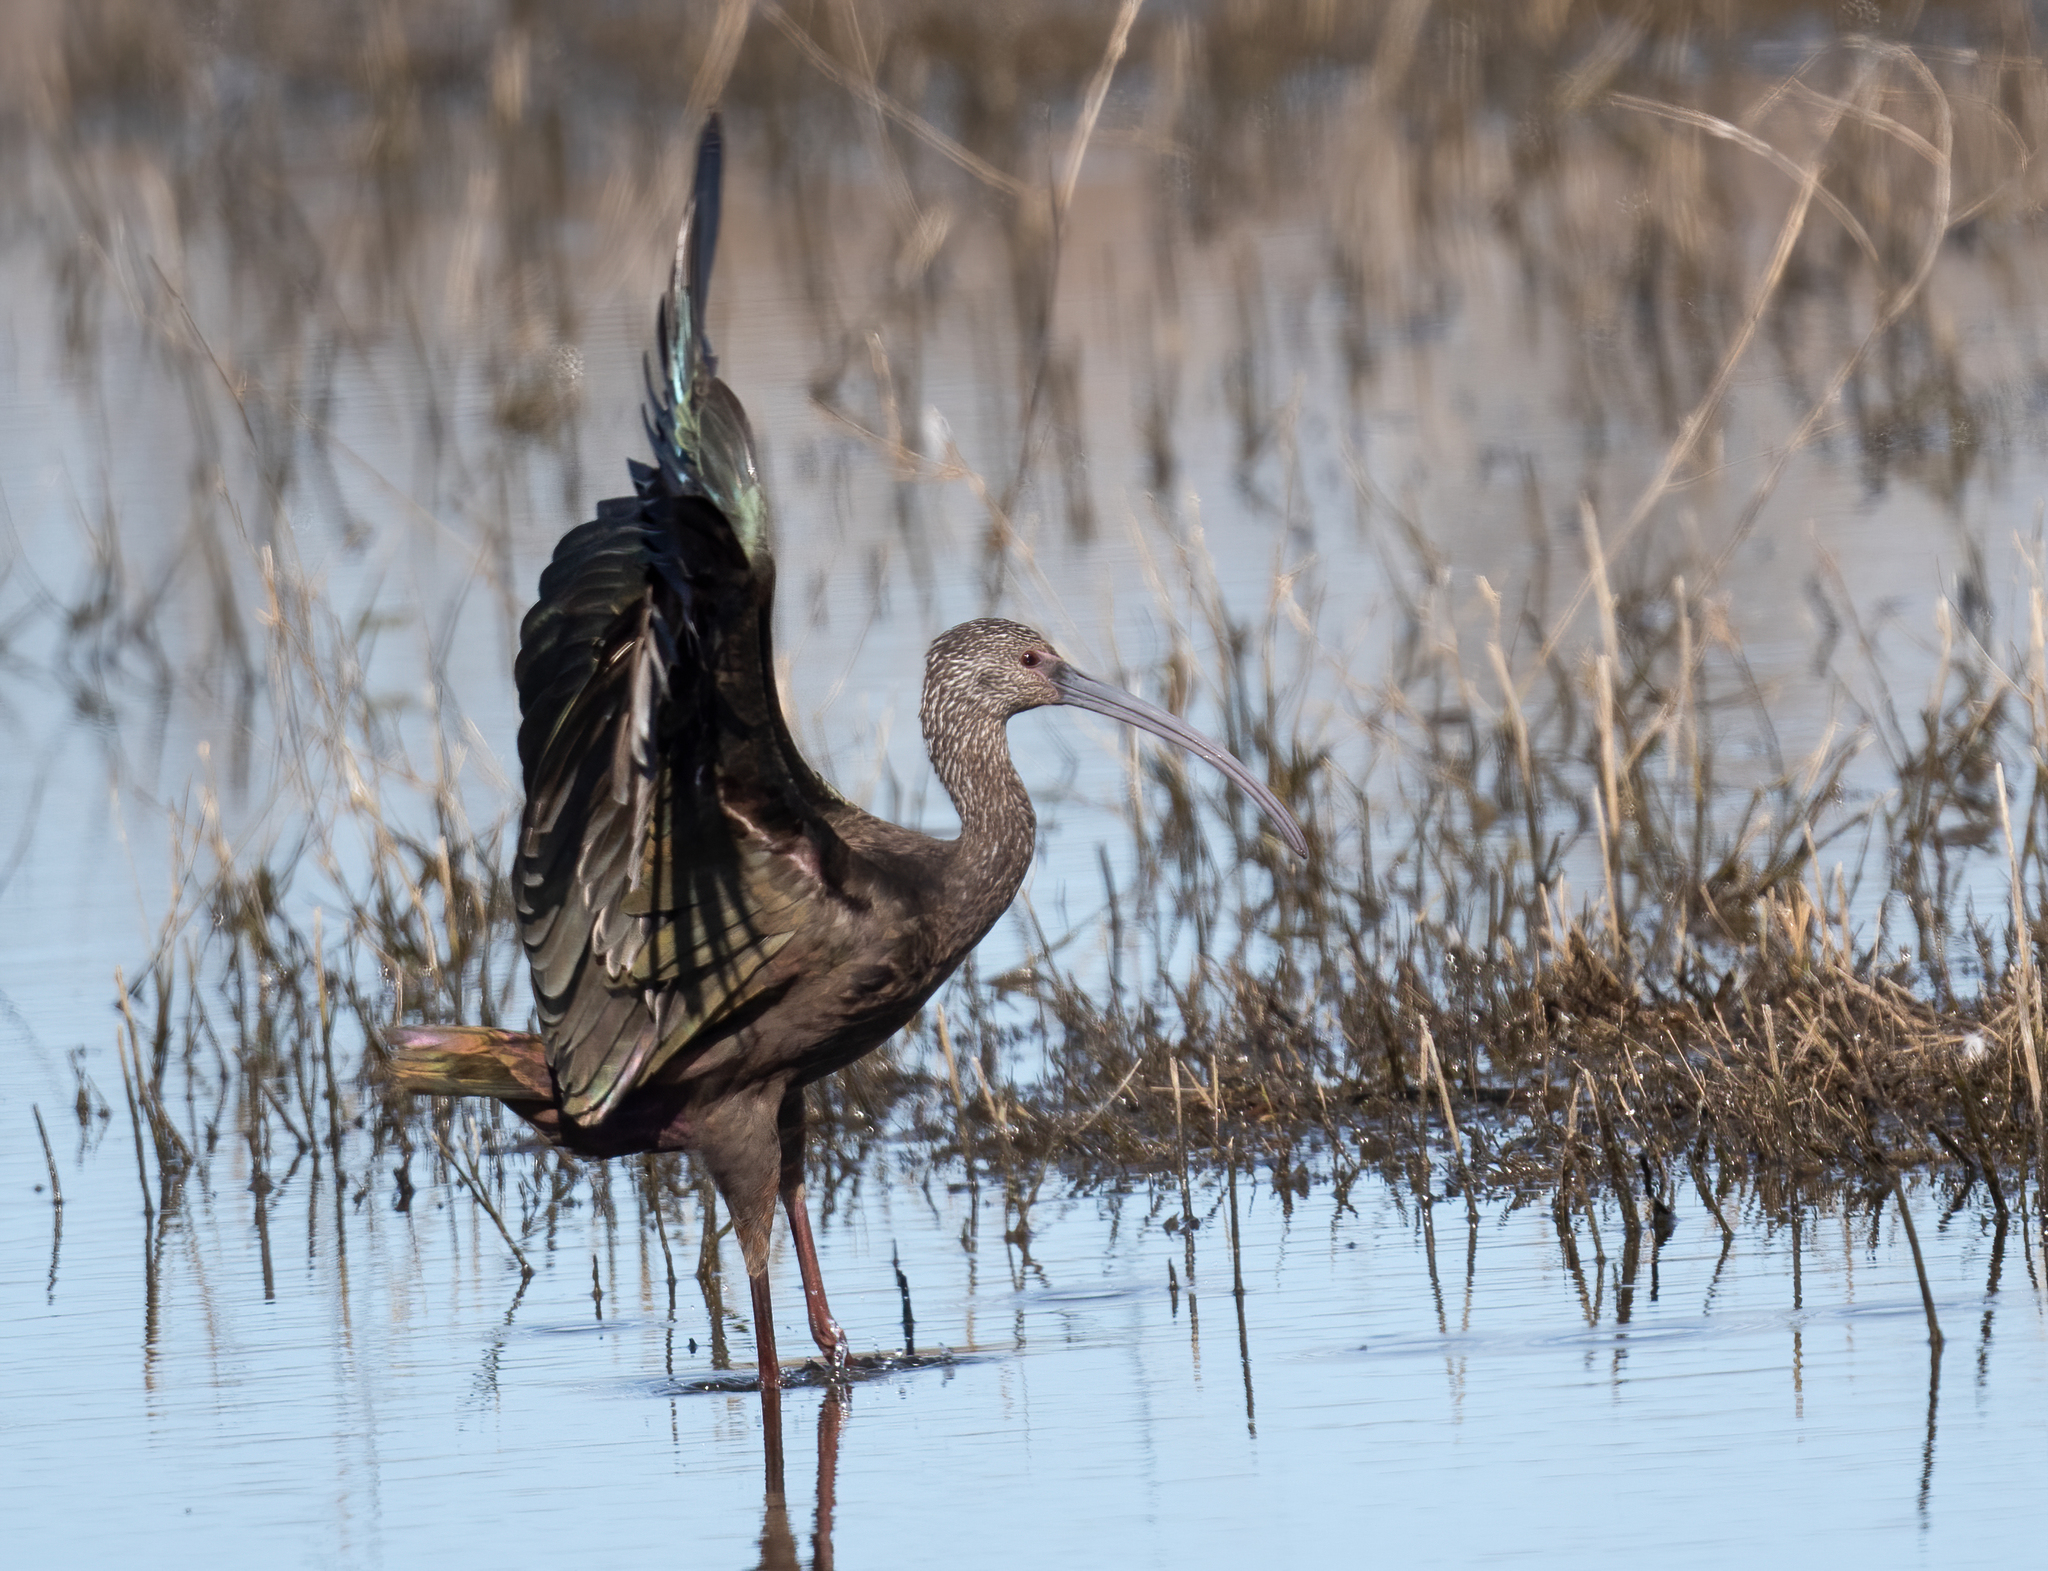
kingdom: Animalia
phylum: Chordata
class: Aves
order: Pelecaniformes
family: Threskiornithidae
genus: Plegadis
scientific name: Plegadis chihi
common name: White-faced ibis
